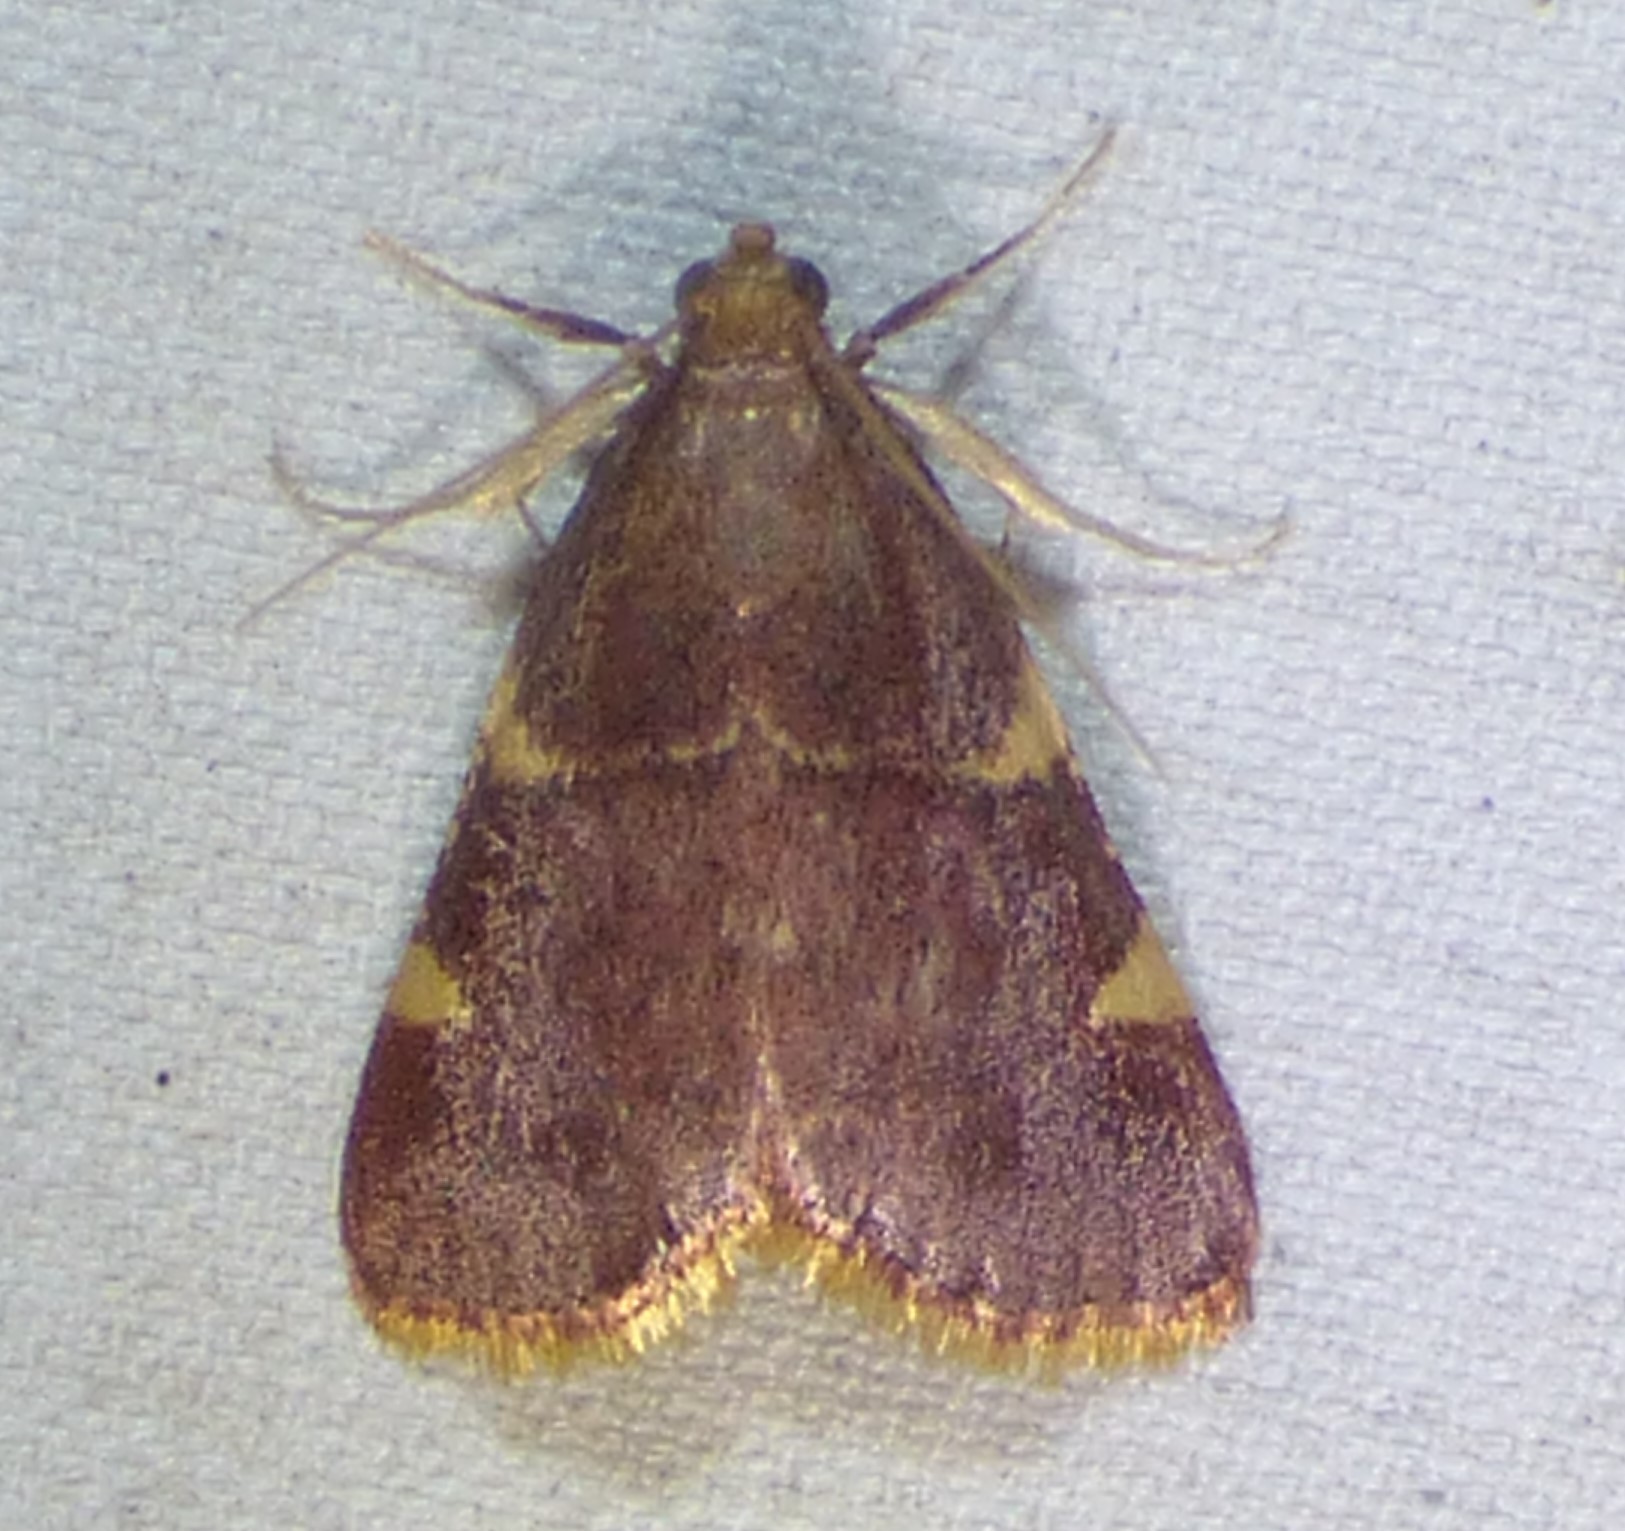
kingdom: Animalia
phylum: Arthropoda
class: Insecta
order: Lepidoptera
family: Pyralidae
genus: Hypsopygia
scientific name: Hypsopygia olinalis
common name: Yellow-fringed dolichomia moth
